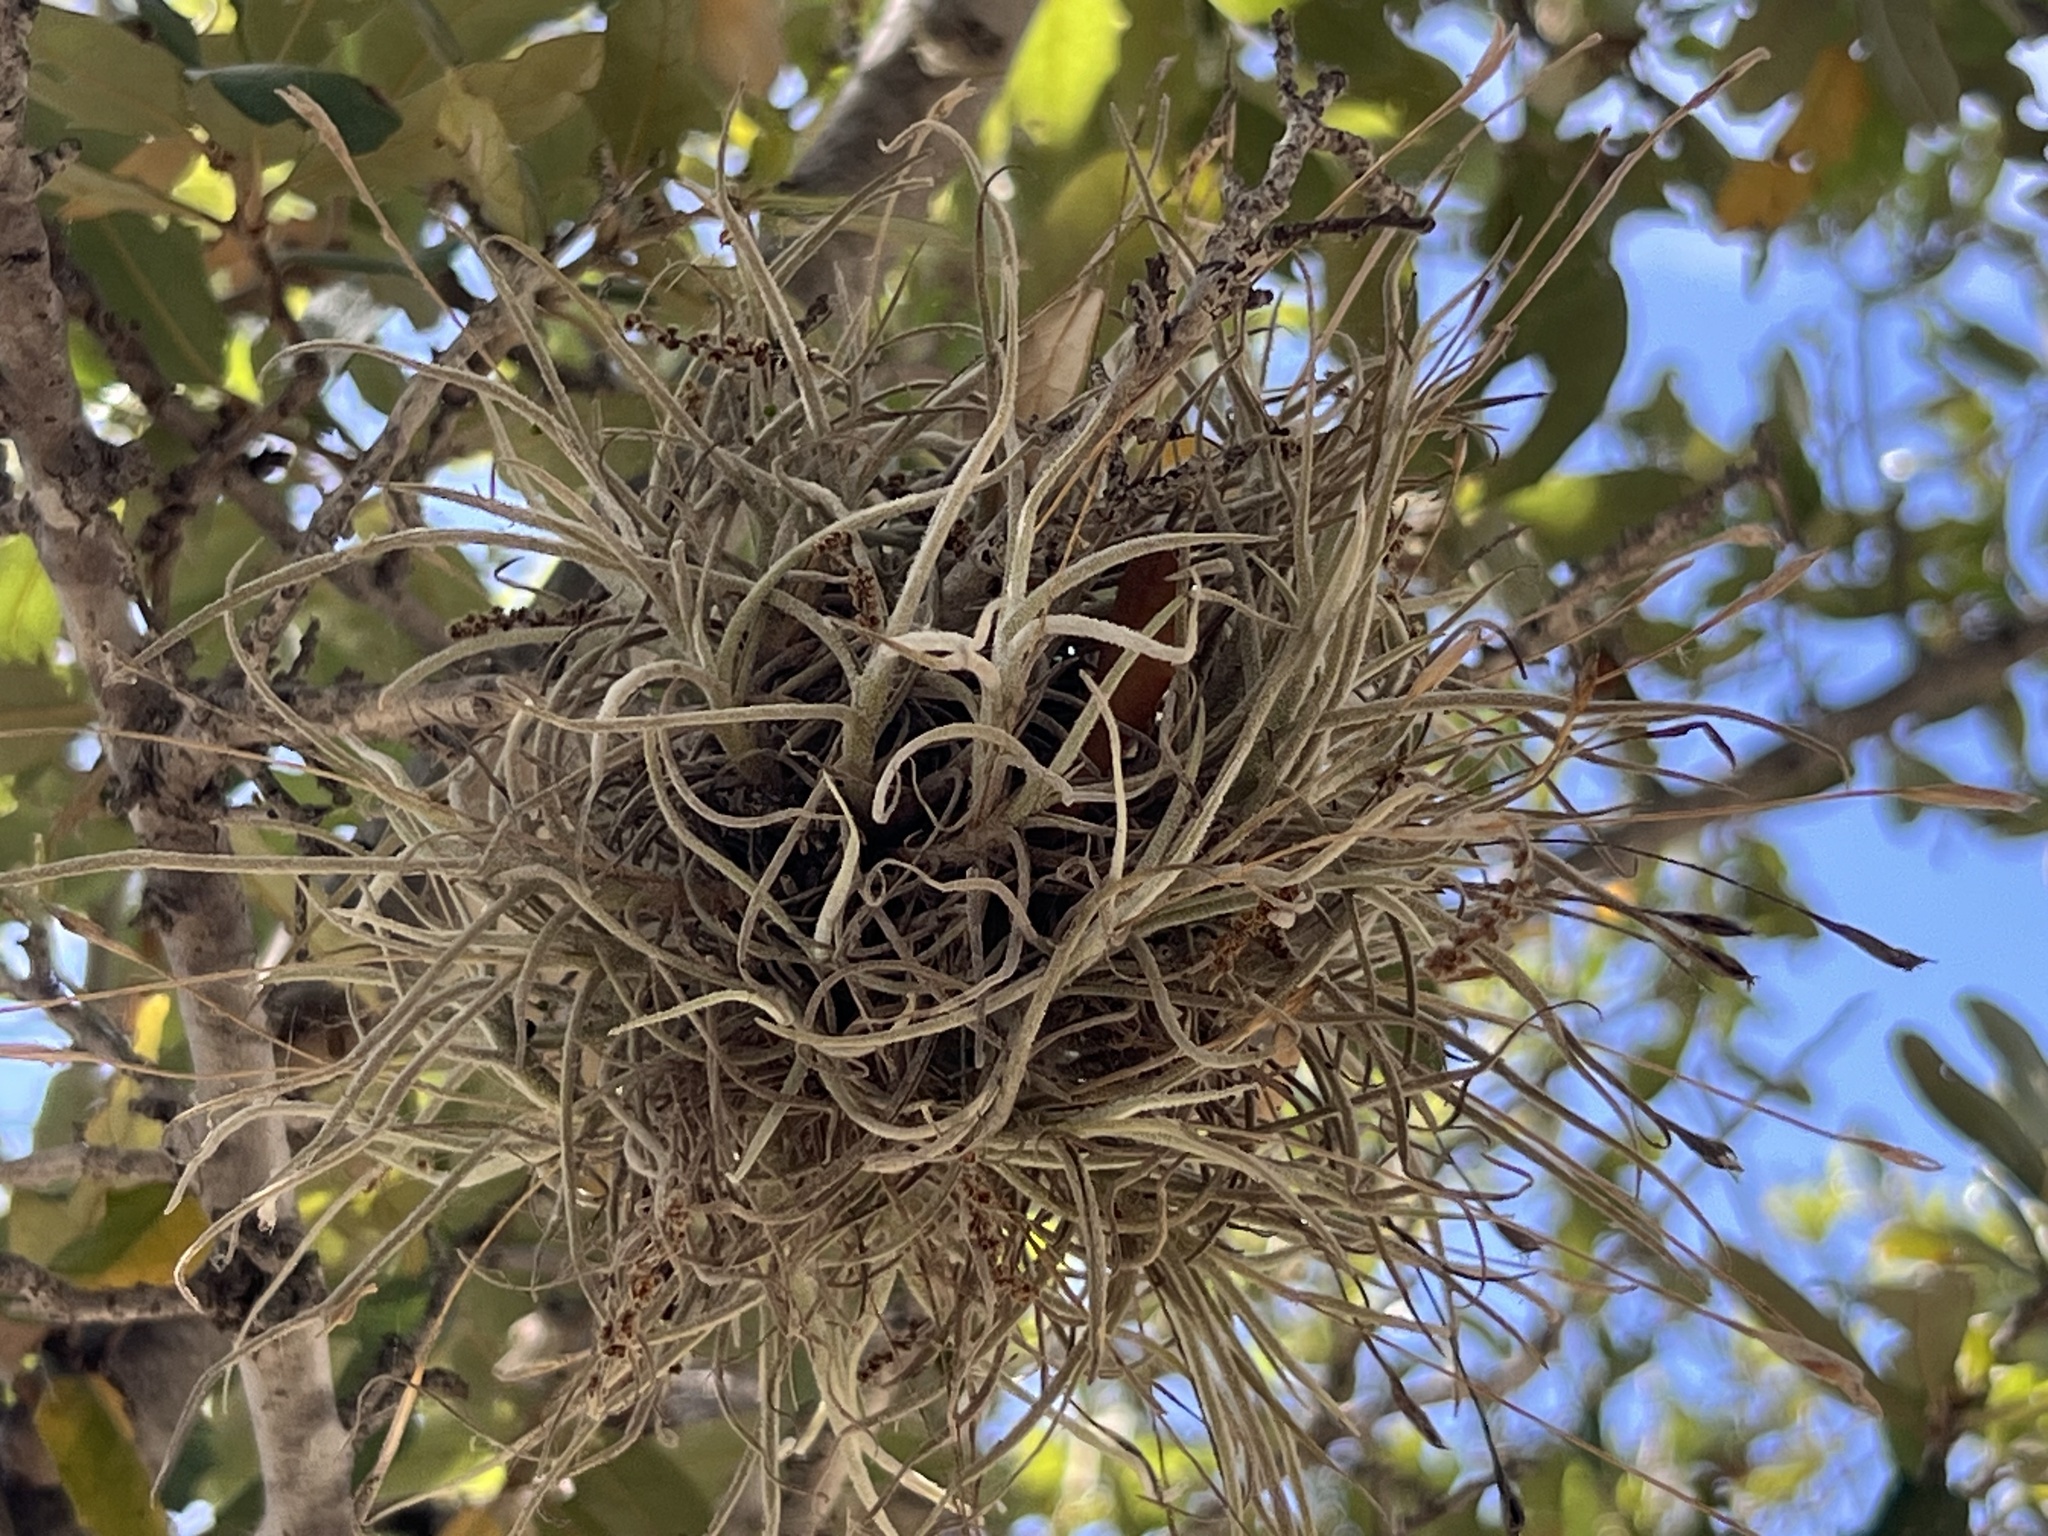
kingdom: Plantae
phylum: Tracheophyta
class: Liliopsida
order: Poales
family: Bromeliaceae
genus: Tillandsia
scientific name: Tillandsia recurvata
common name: Small ballmoss
